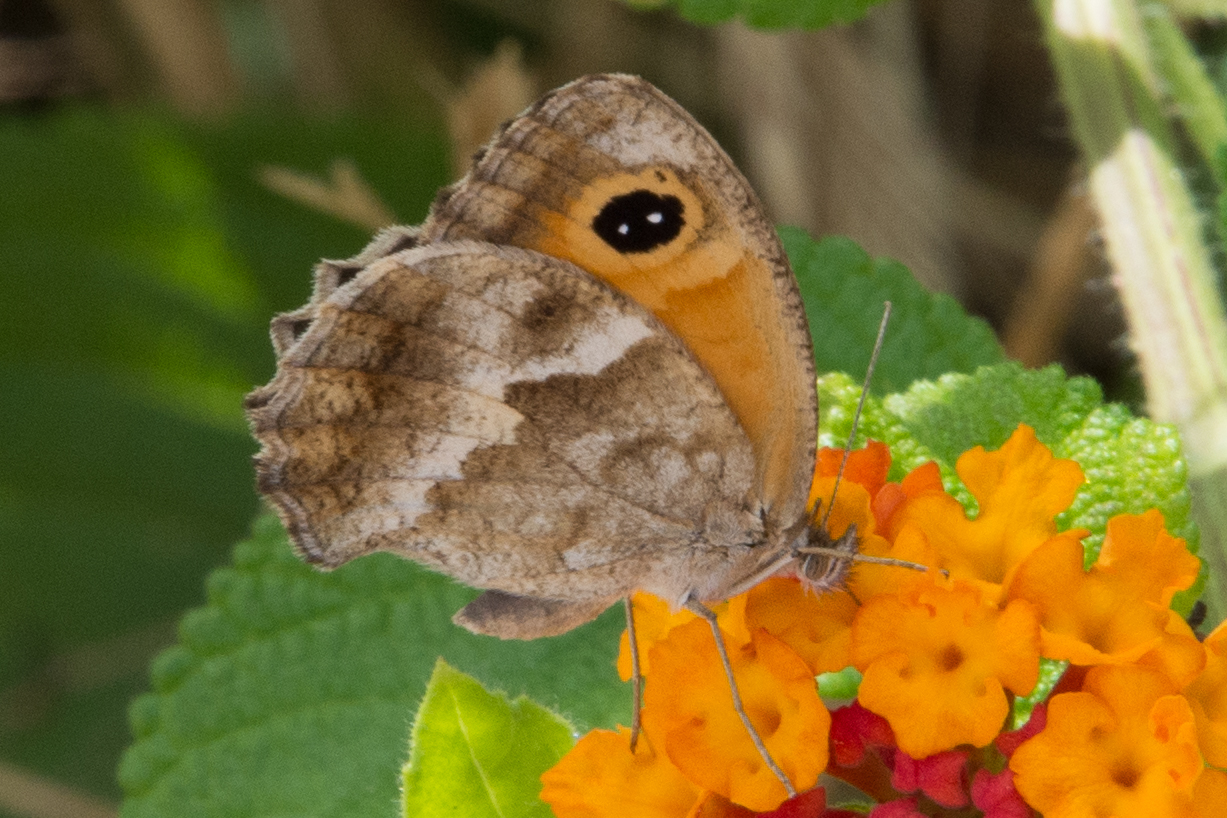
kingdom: Animalia
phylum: Arthropoda
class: Insecta
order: Lepidoptera
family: Nymphalidae
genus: Pyronia
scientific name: Pyronia cecilia
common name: Southern gatekeeper
